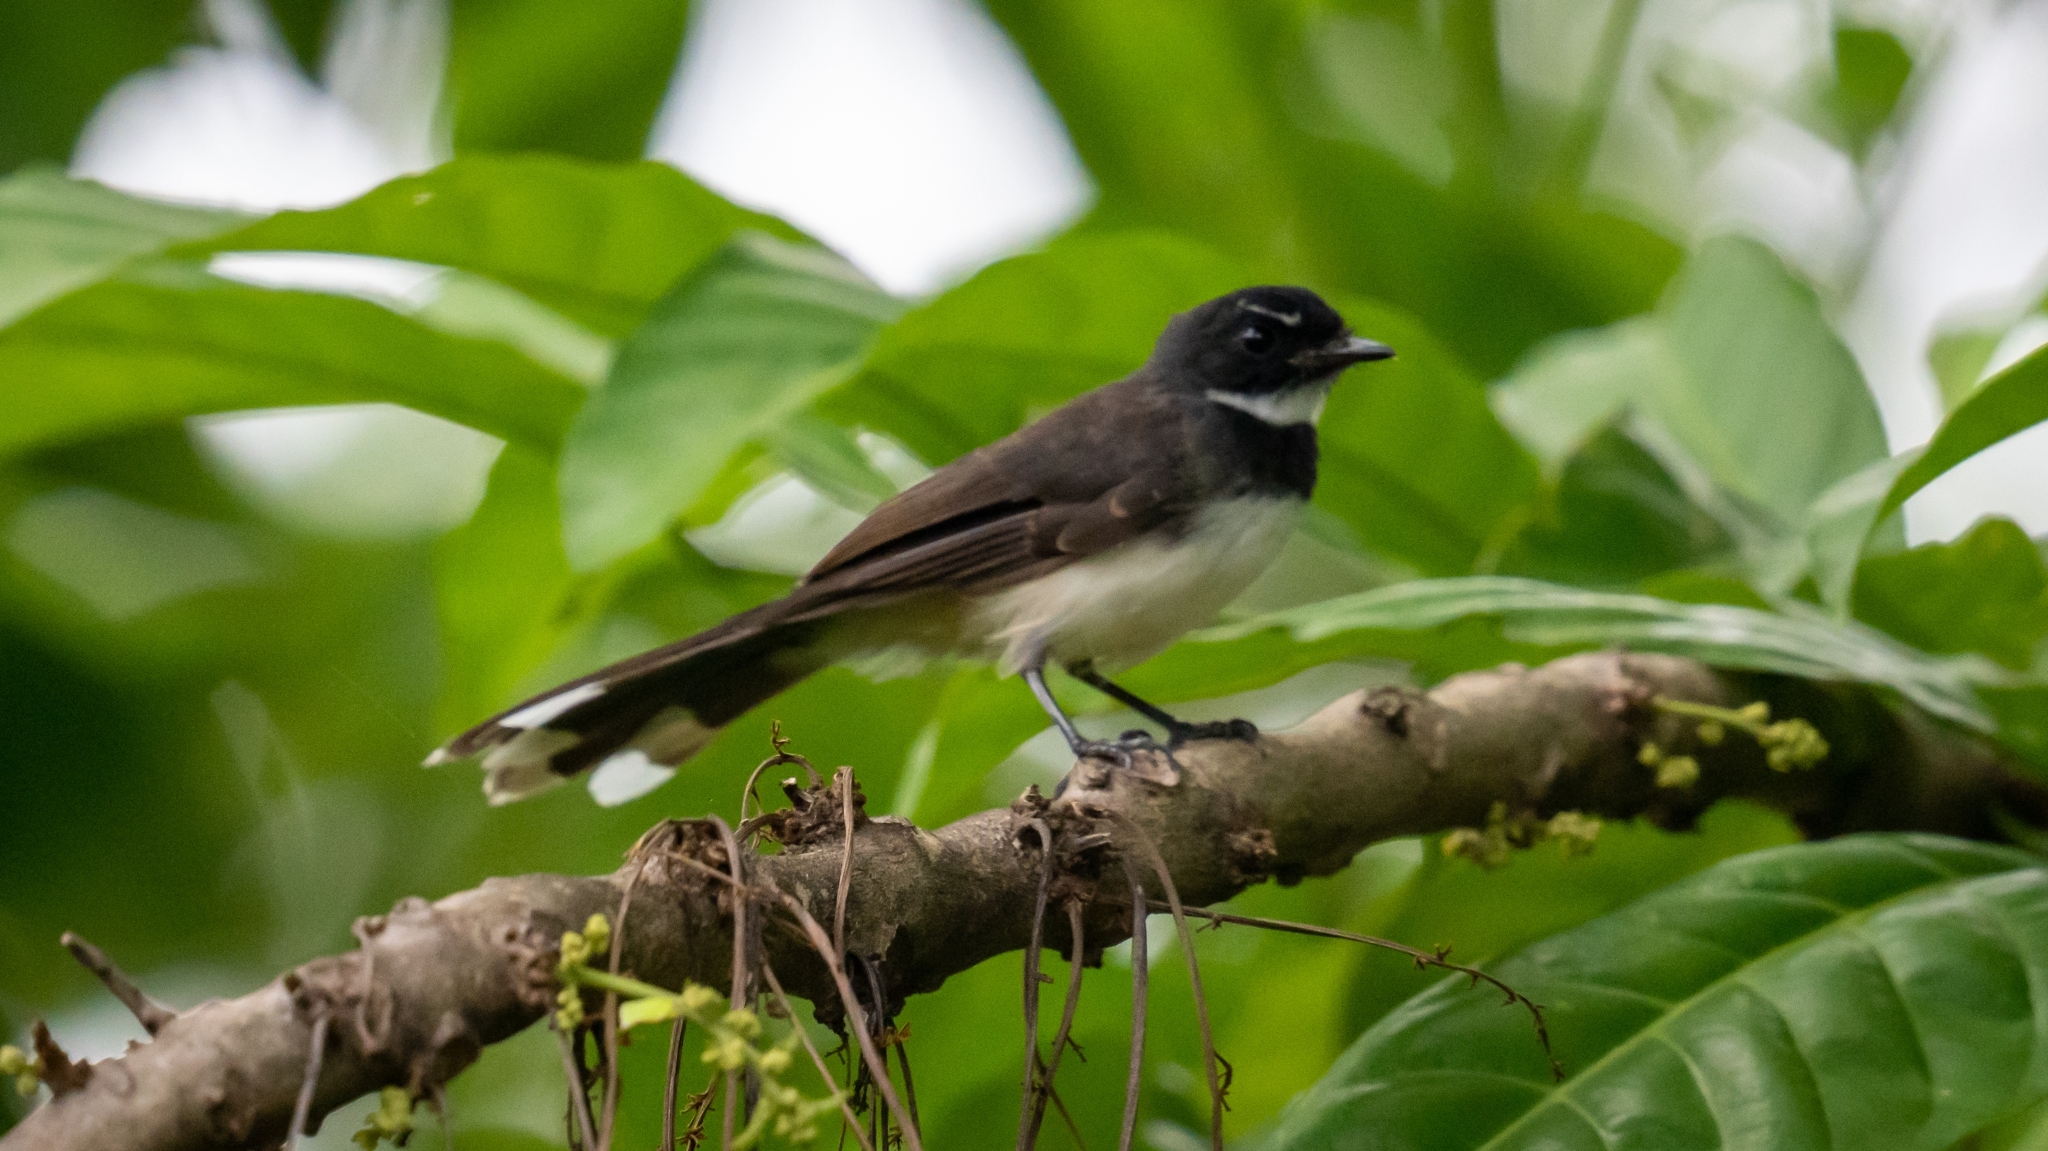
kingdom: Animalia
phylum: Chordata
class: Aves
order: Passeriformes
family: Rhipiduridae
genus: Rhipidura
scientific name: Rhipidura javanica
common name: Pied fantail
